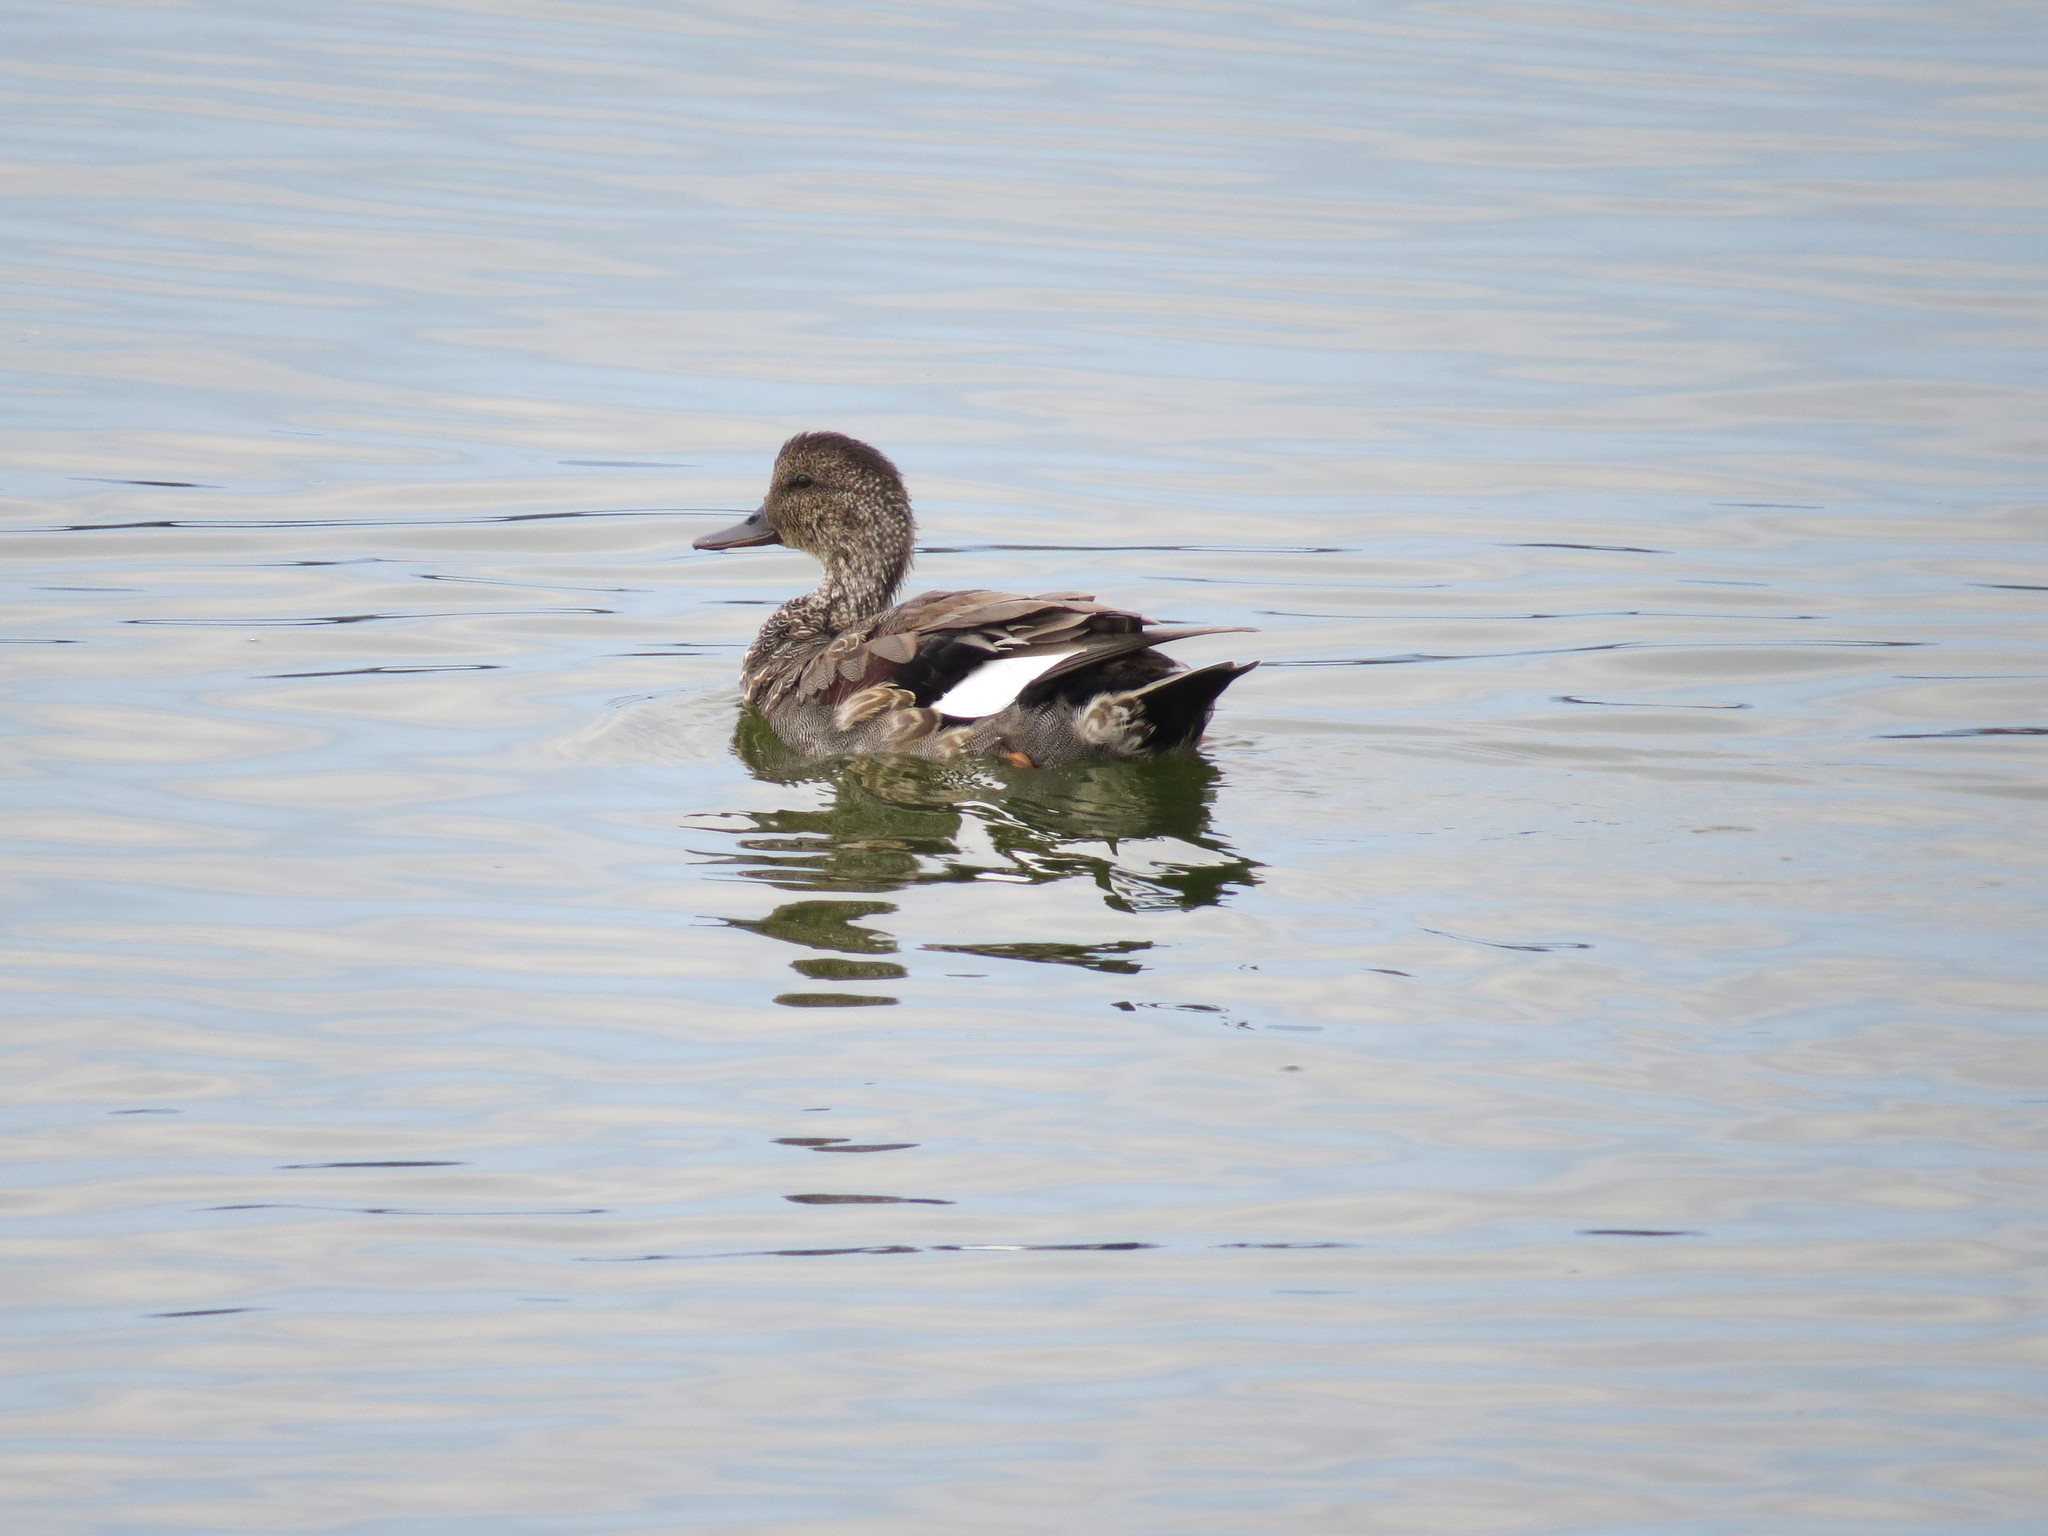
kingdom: Animalia
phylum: Chordata
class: Aves
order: Anseriformes
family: Anatidae
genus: Mareca
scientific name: Mareca strepera
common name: Gadwall
